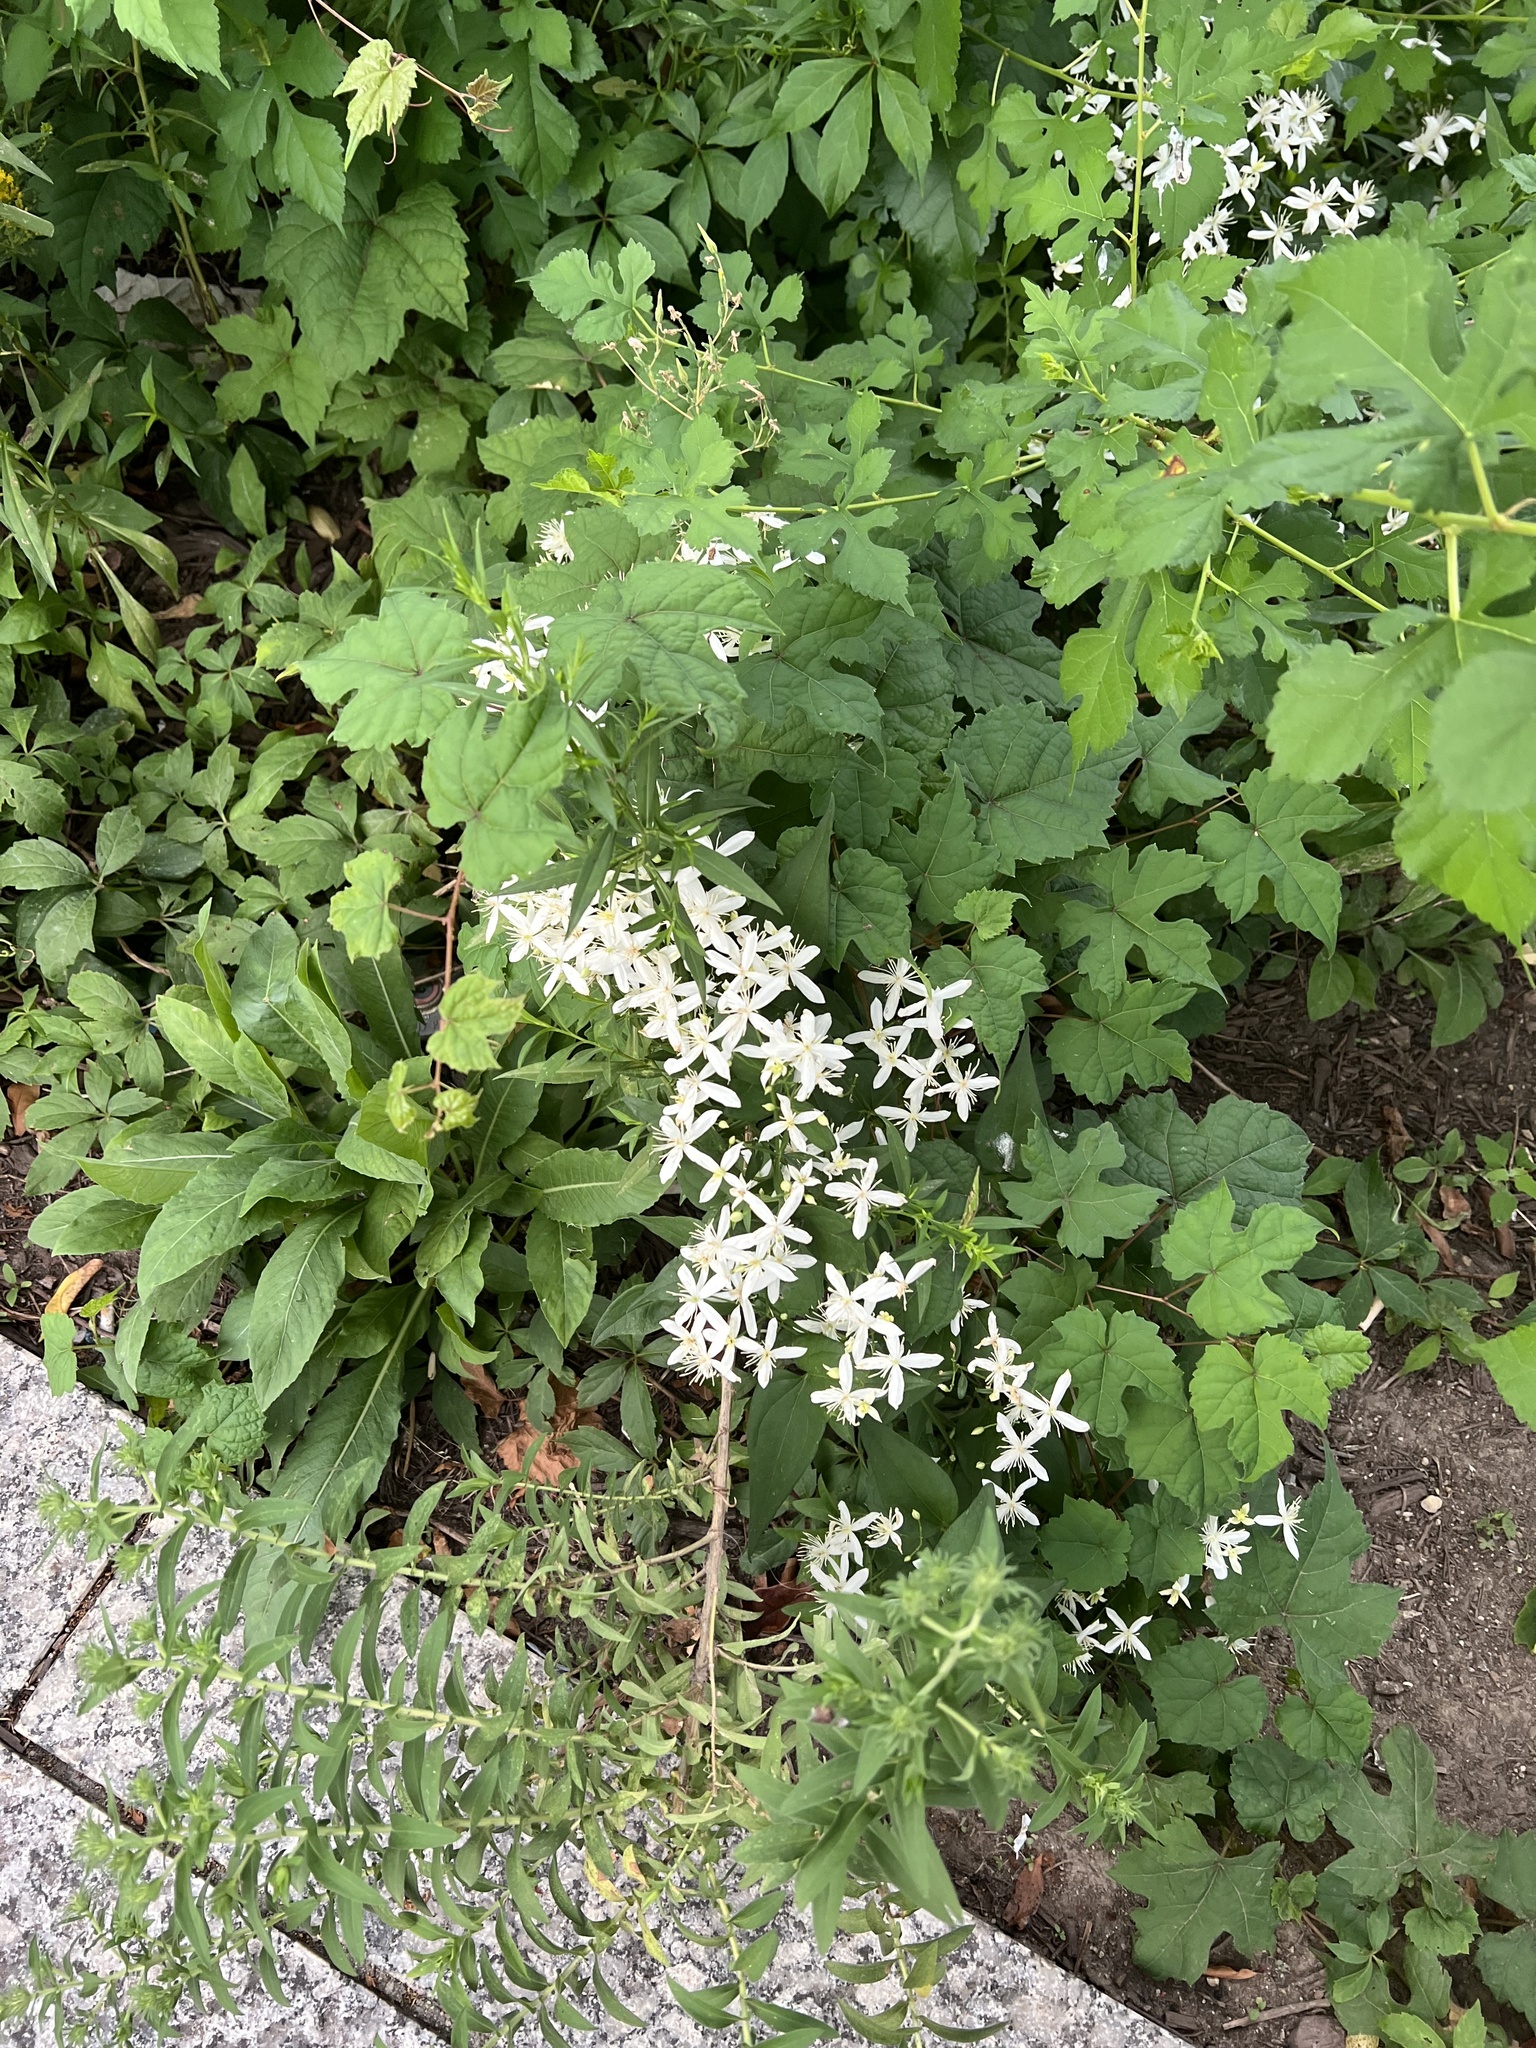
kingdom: Plantae
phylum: Tracheophyta
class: Magnoliopsida
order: Ranunculales
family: Ranunculaceae
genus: Clematis
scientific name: Clematis terniflora
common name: Sweet autumn clematis
